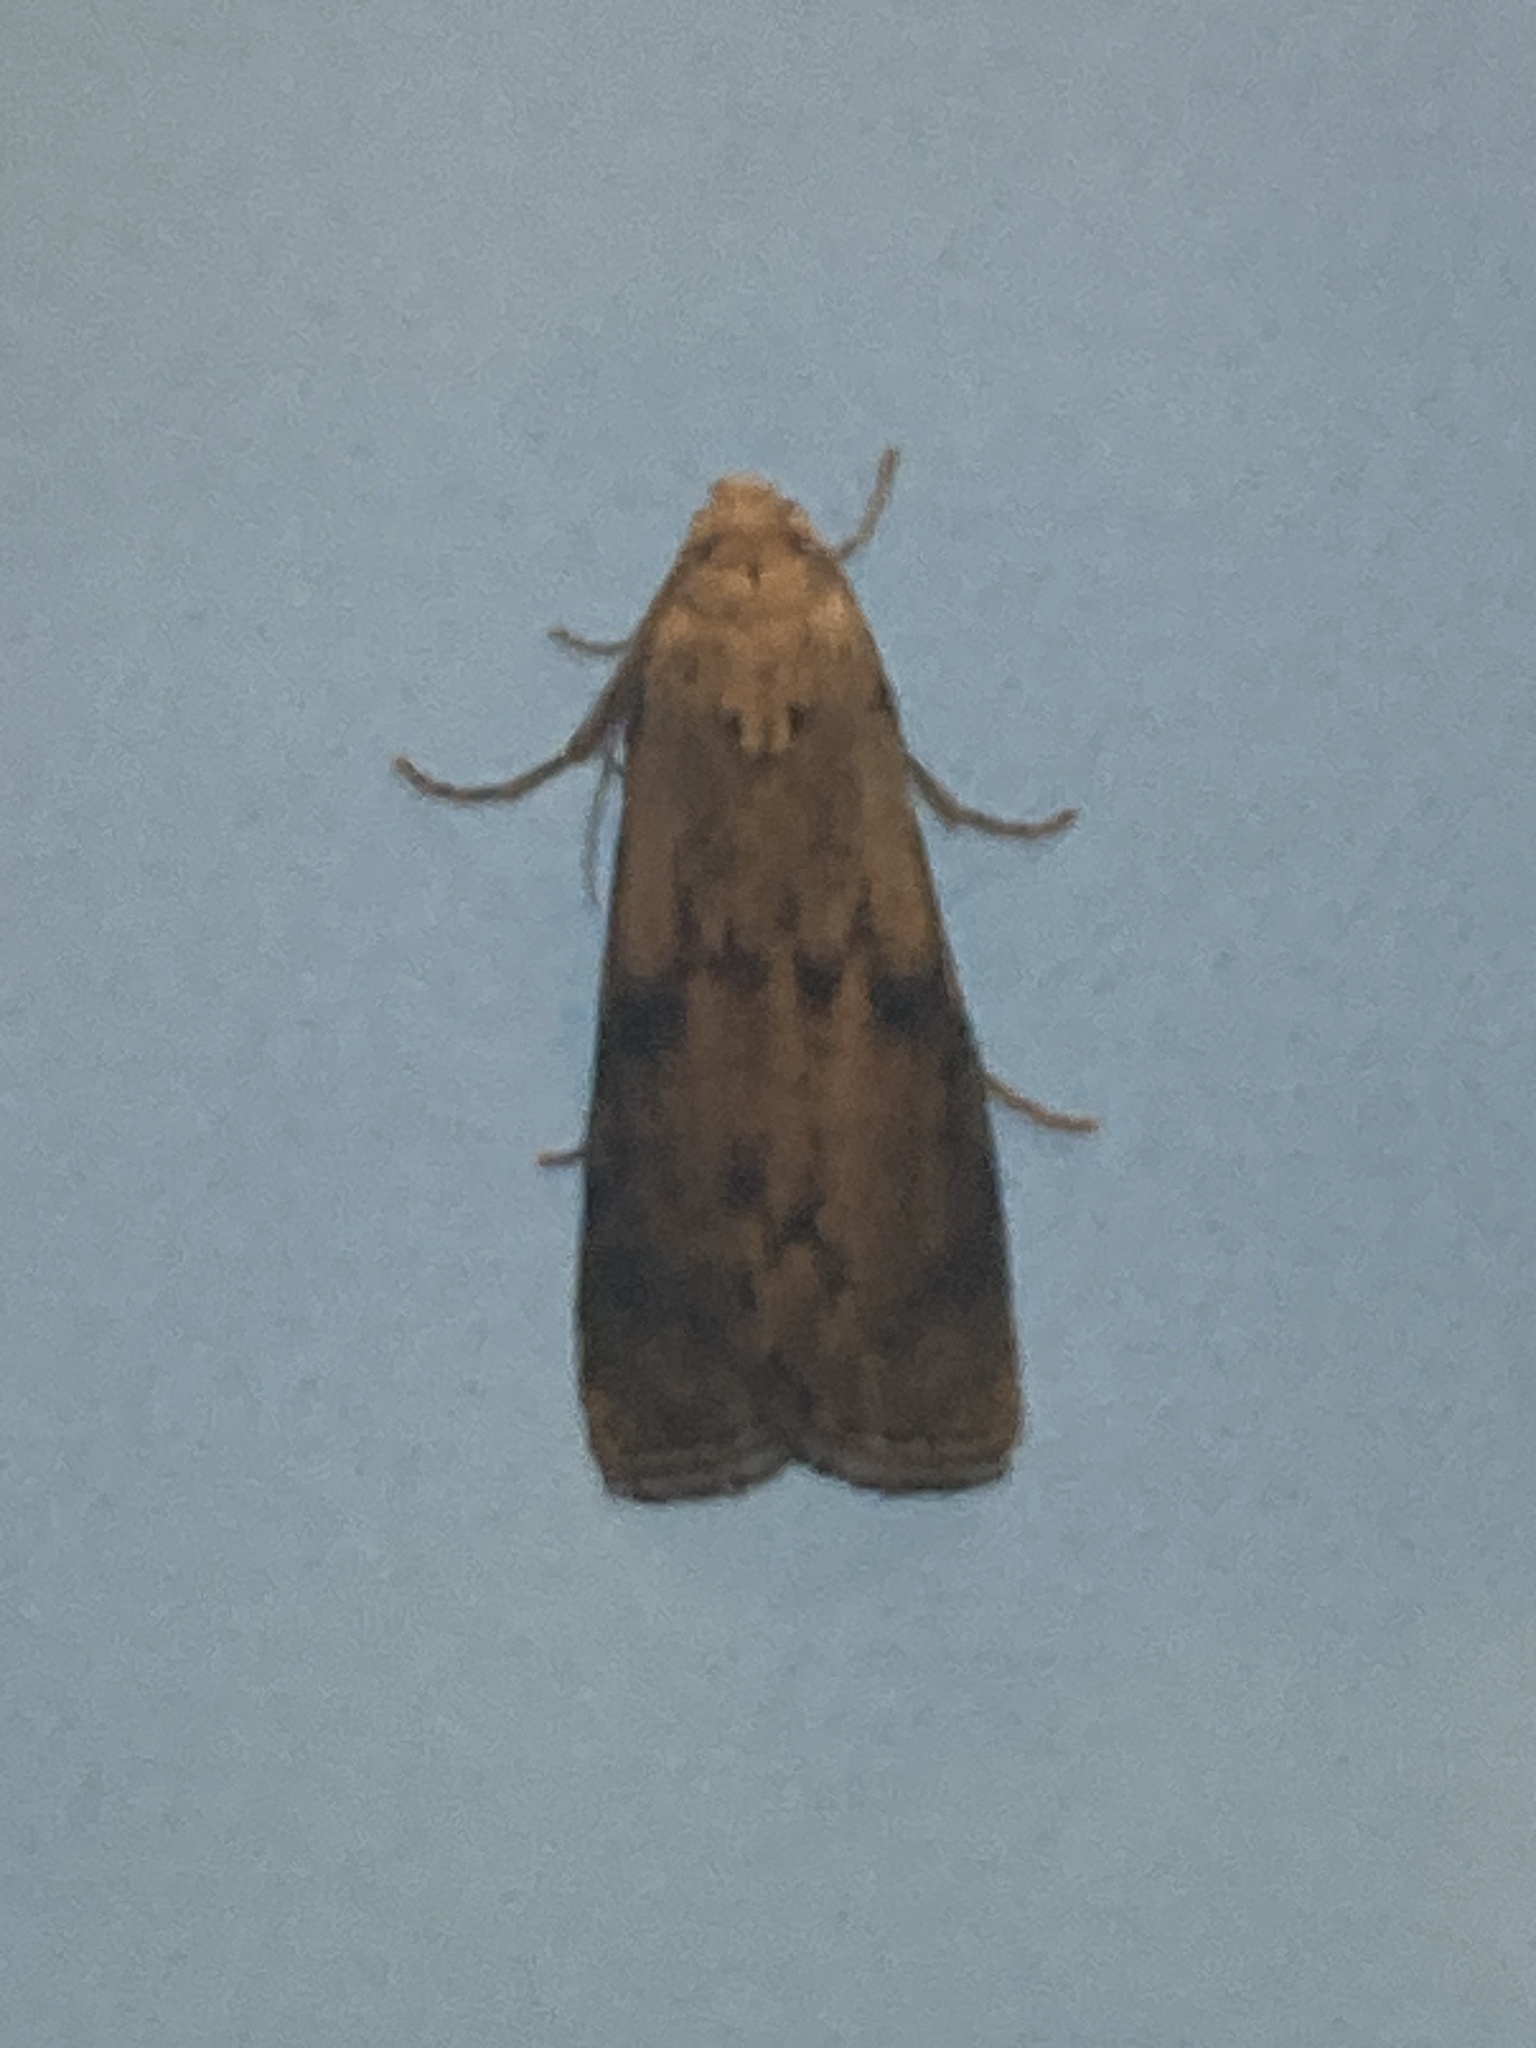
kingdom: Animalia
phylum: Arthropoda
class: Insecta
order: Lepidoptera
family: Pyralidae
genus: Aphomia
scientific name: Aphomia sociella
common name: Bee moth
